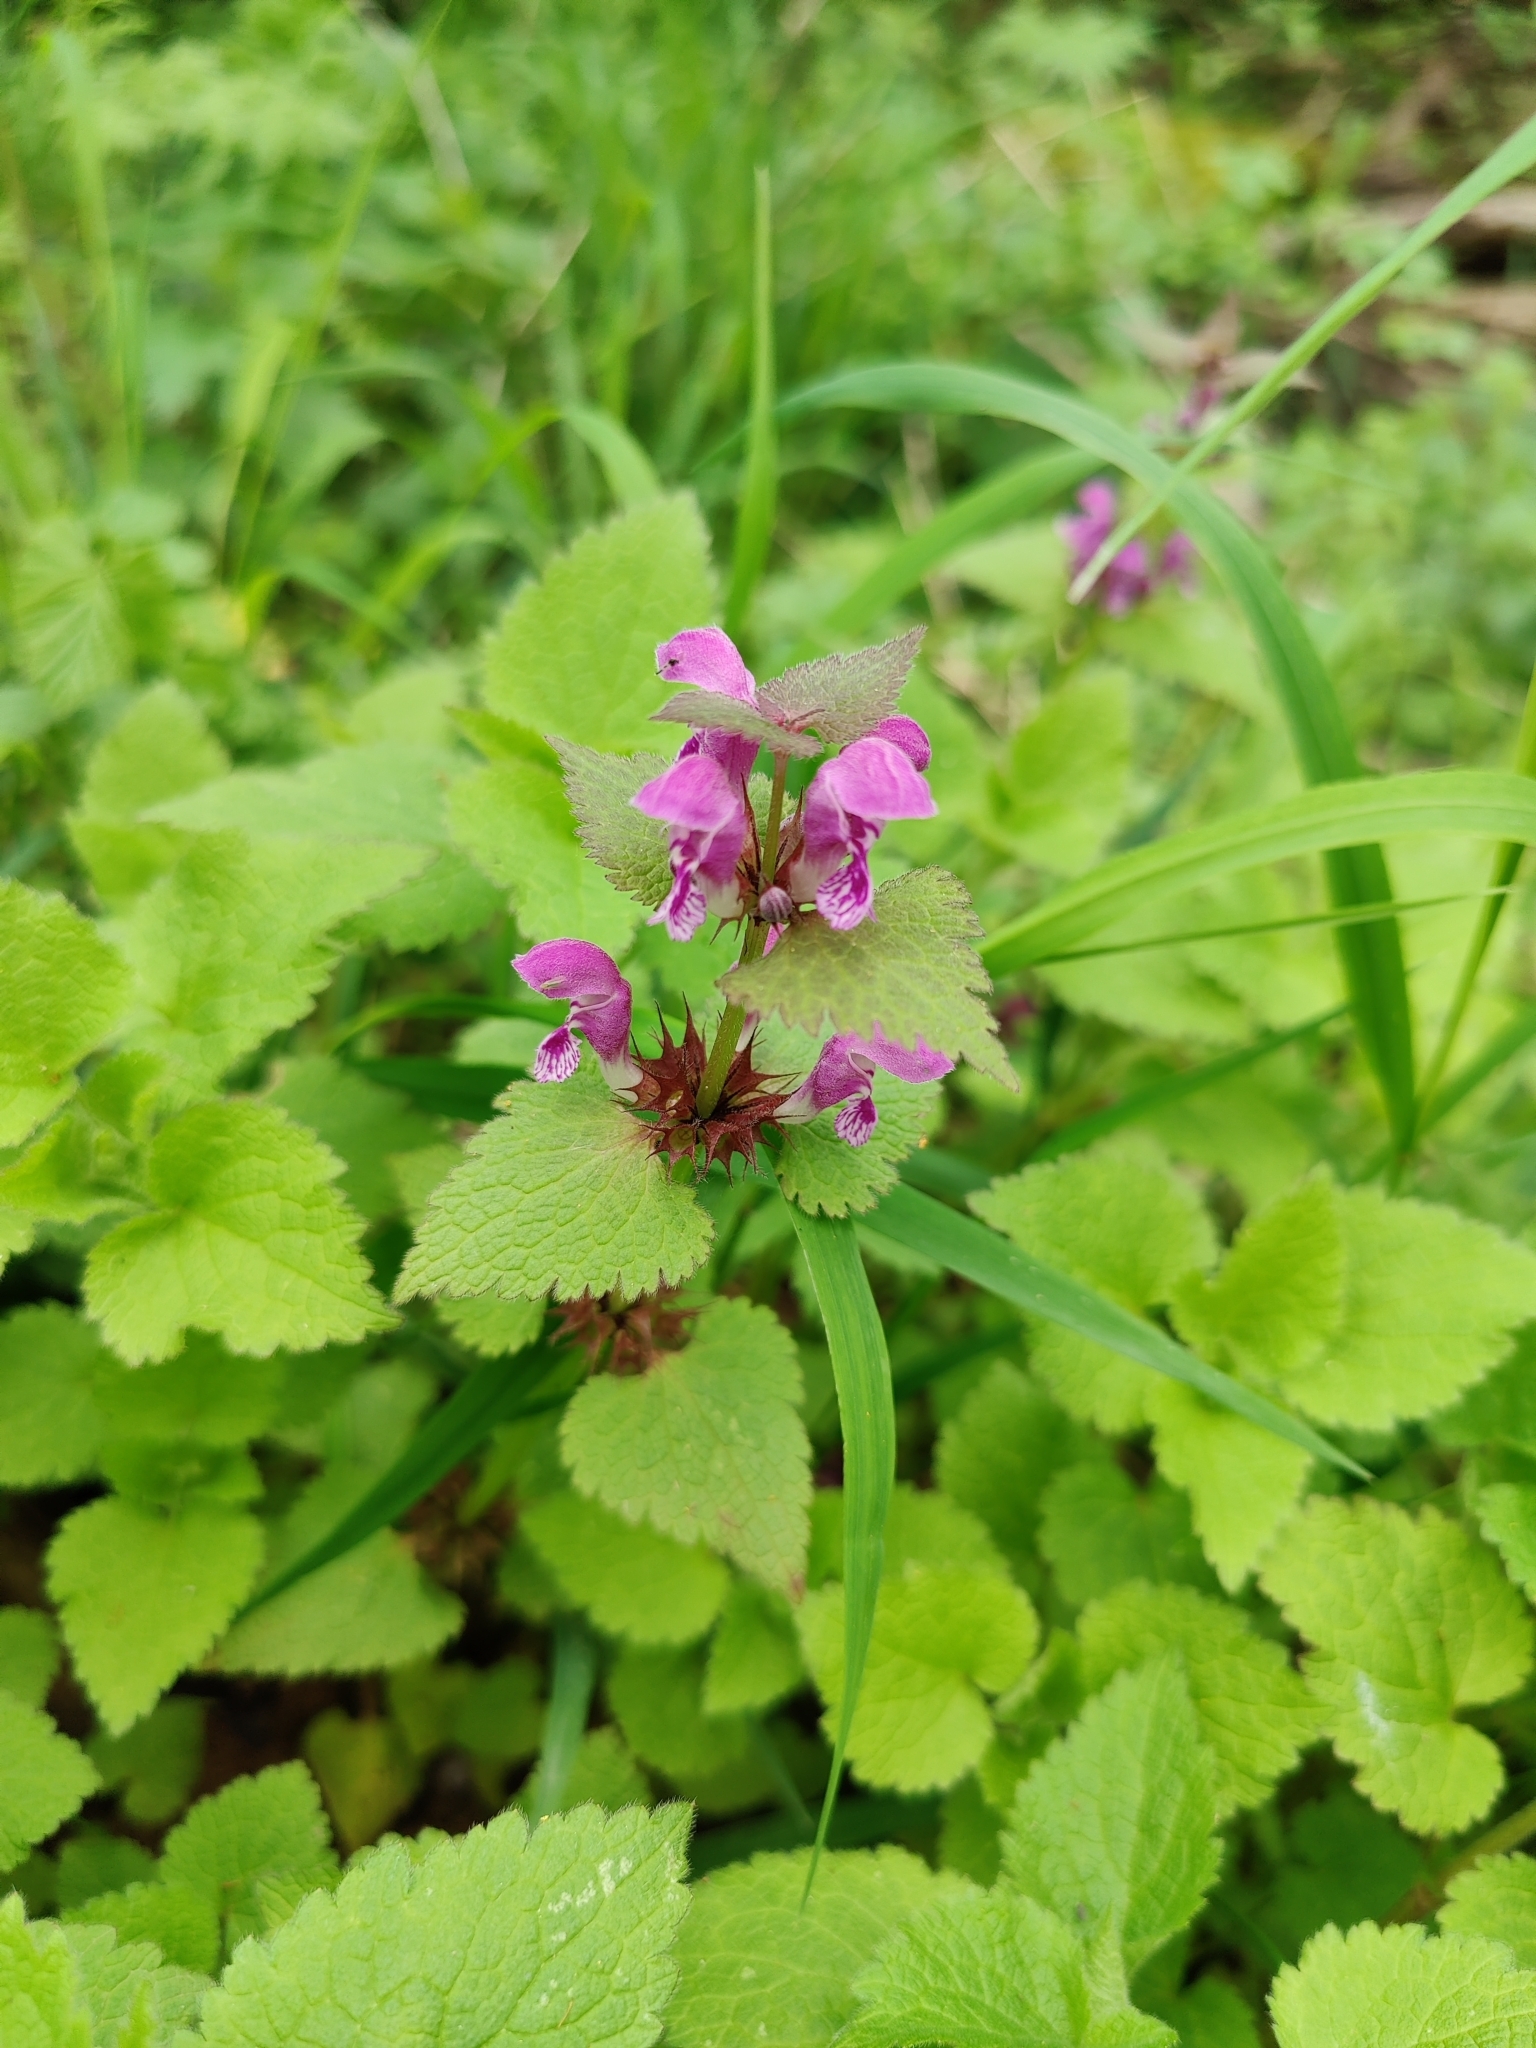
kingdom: Plantae
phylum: Tracheophyta
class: Magnoliopsida
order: Lamiales
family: Lamiaceae
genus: Lamium
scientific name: Lamium maculatum
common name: Spotted dead-nettle
